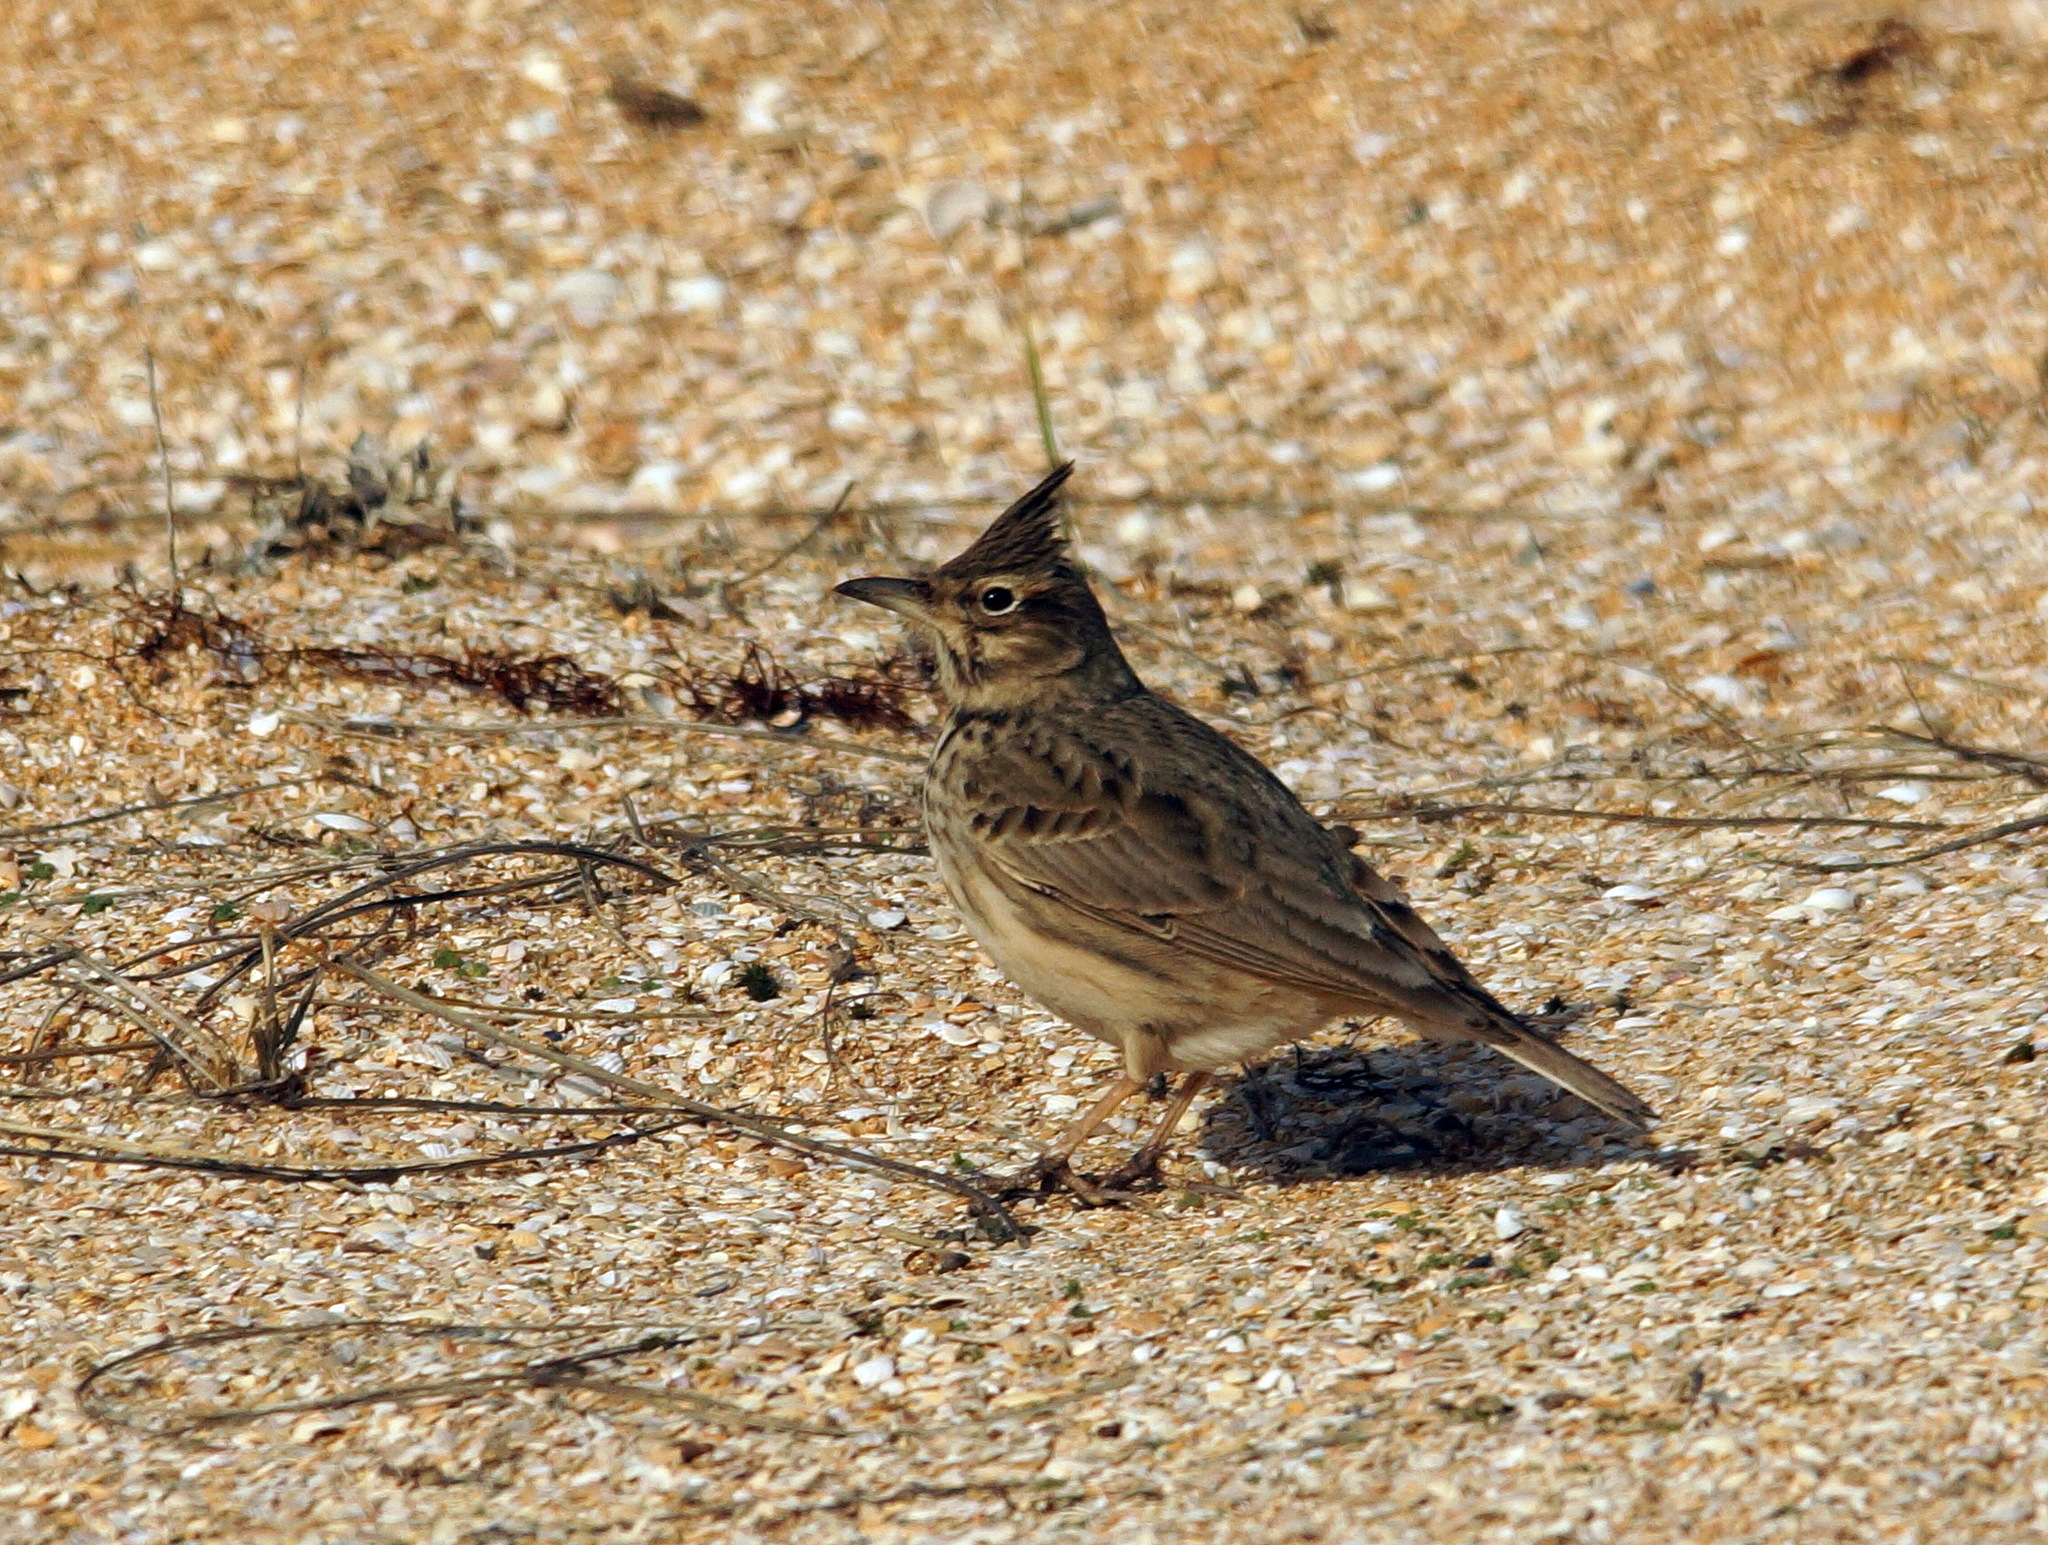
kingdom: Animalia
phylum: Chordata
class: Aves
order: Passeriformes
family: Alaudidae
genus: Galerida
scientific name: Galerida cristata
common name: Crested lark
